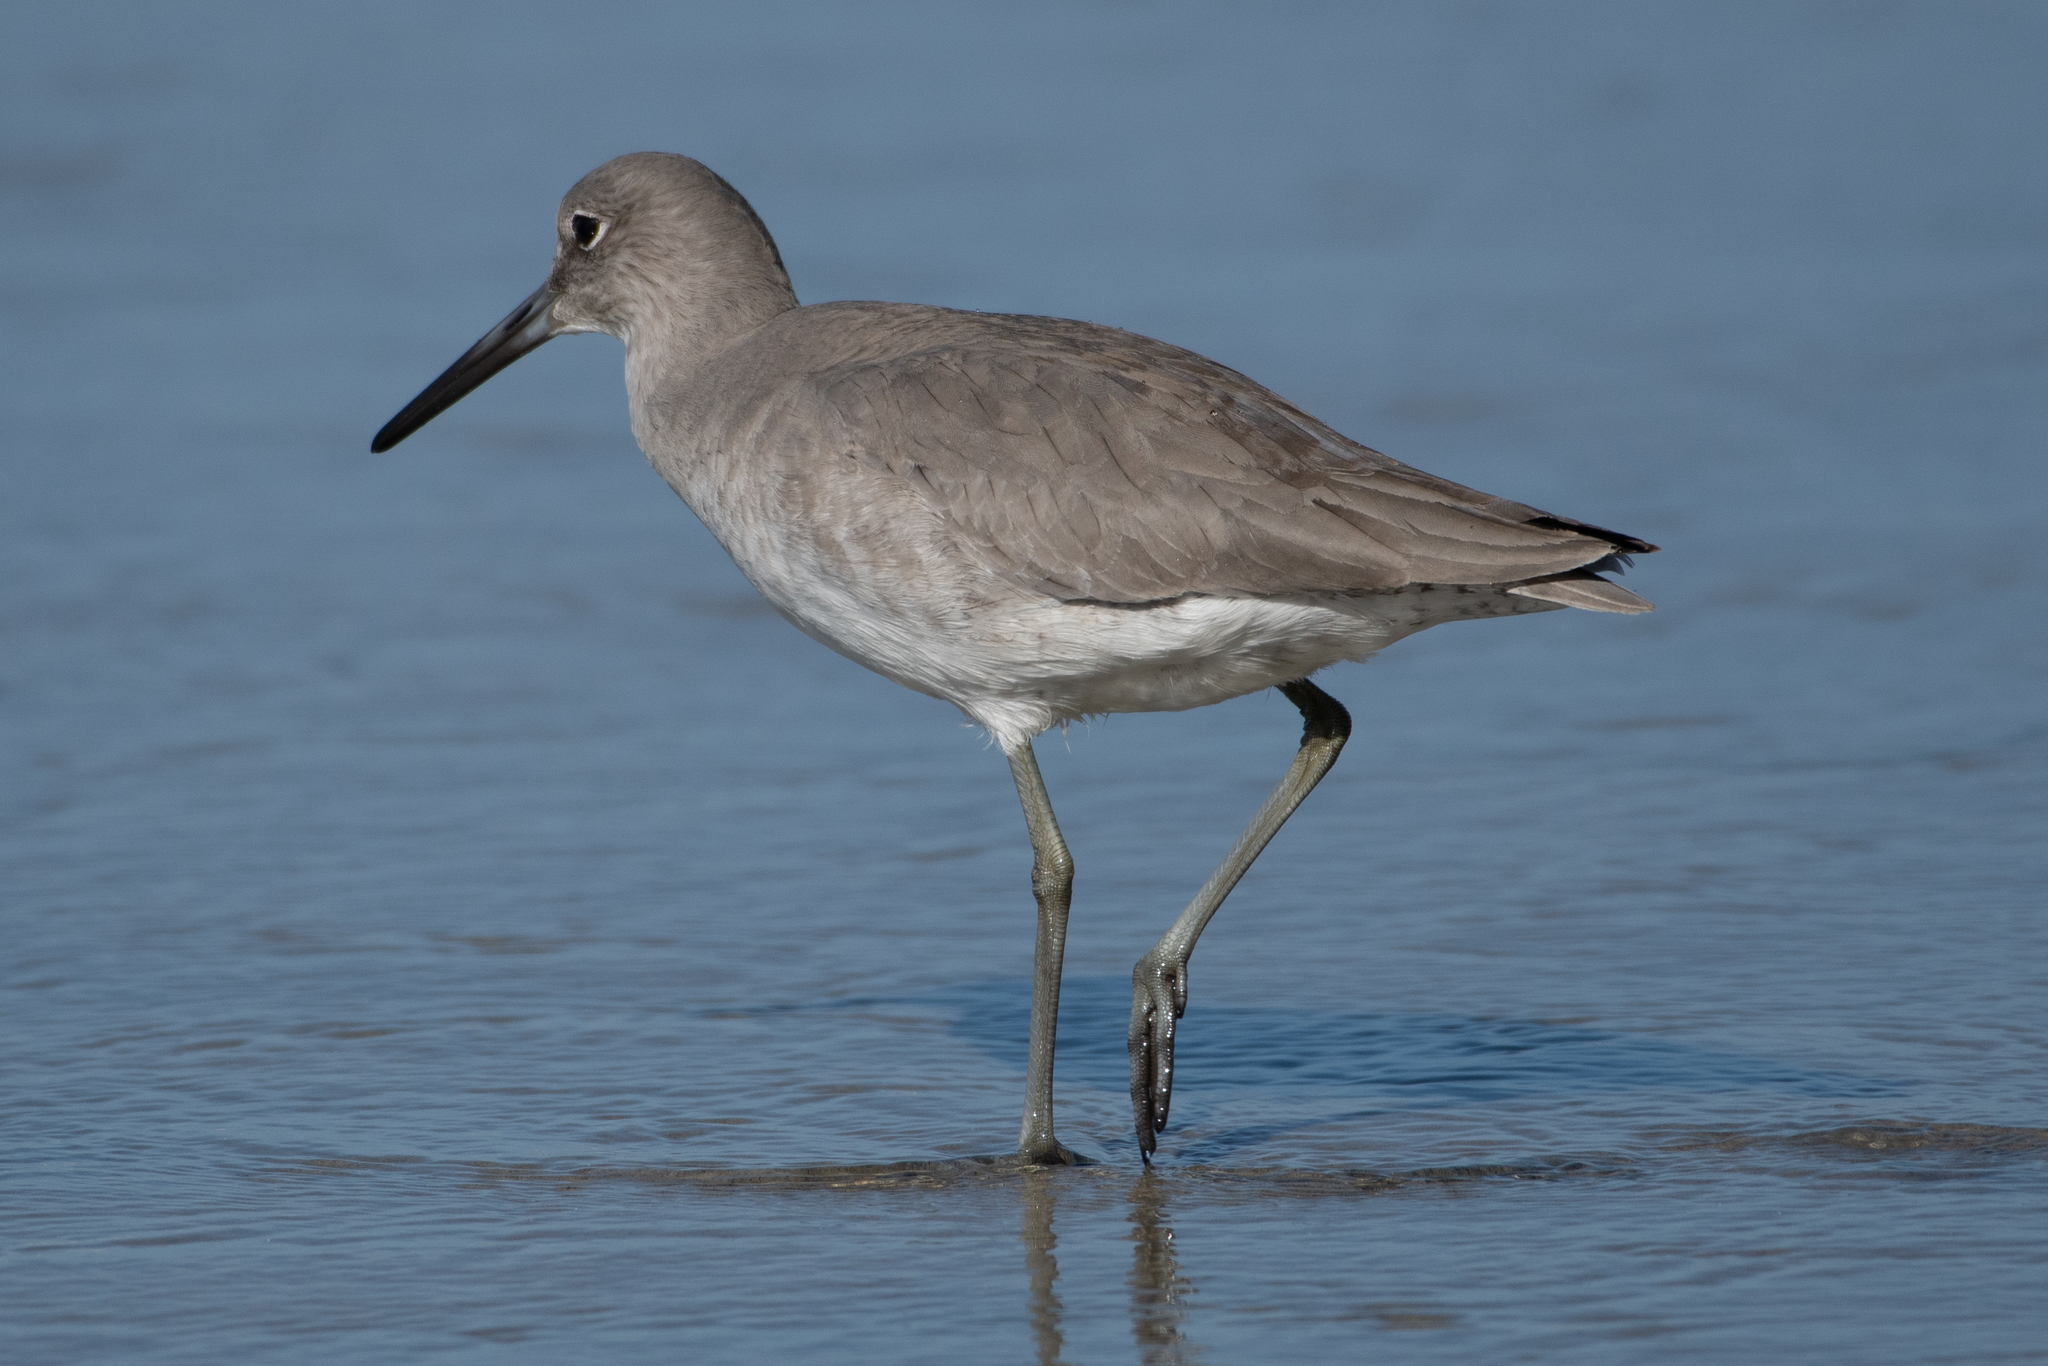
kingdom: Animalia
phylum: Chordata
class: Aves
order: Charadriiformes
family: Scolopacidae
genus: Tringa
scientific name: Tringa semipalmata
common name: Willet
